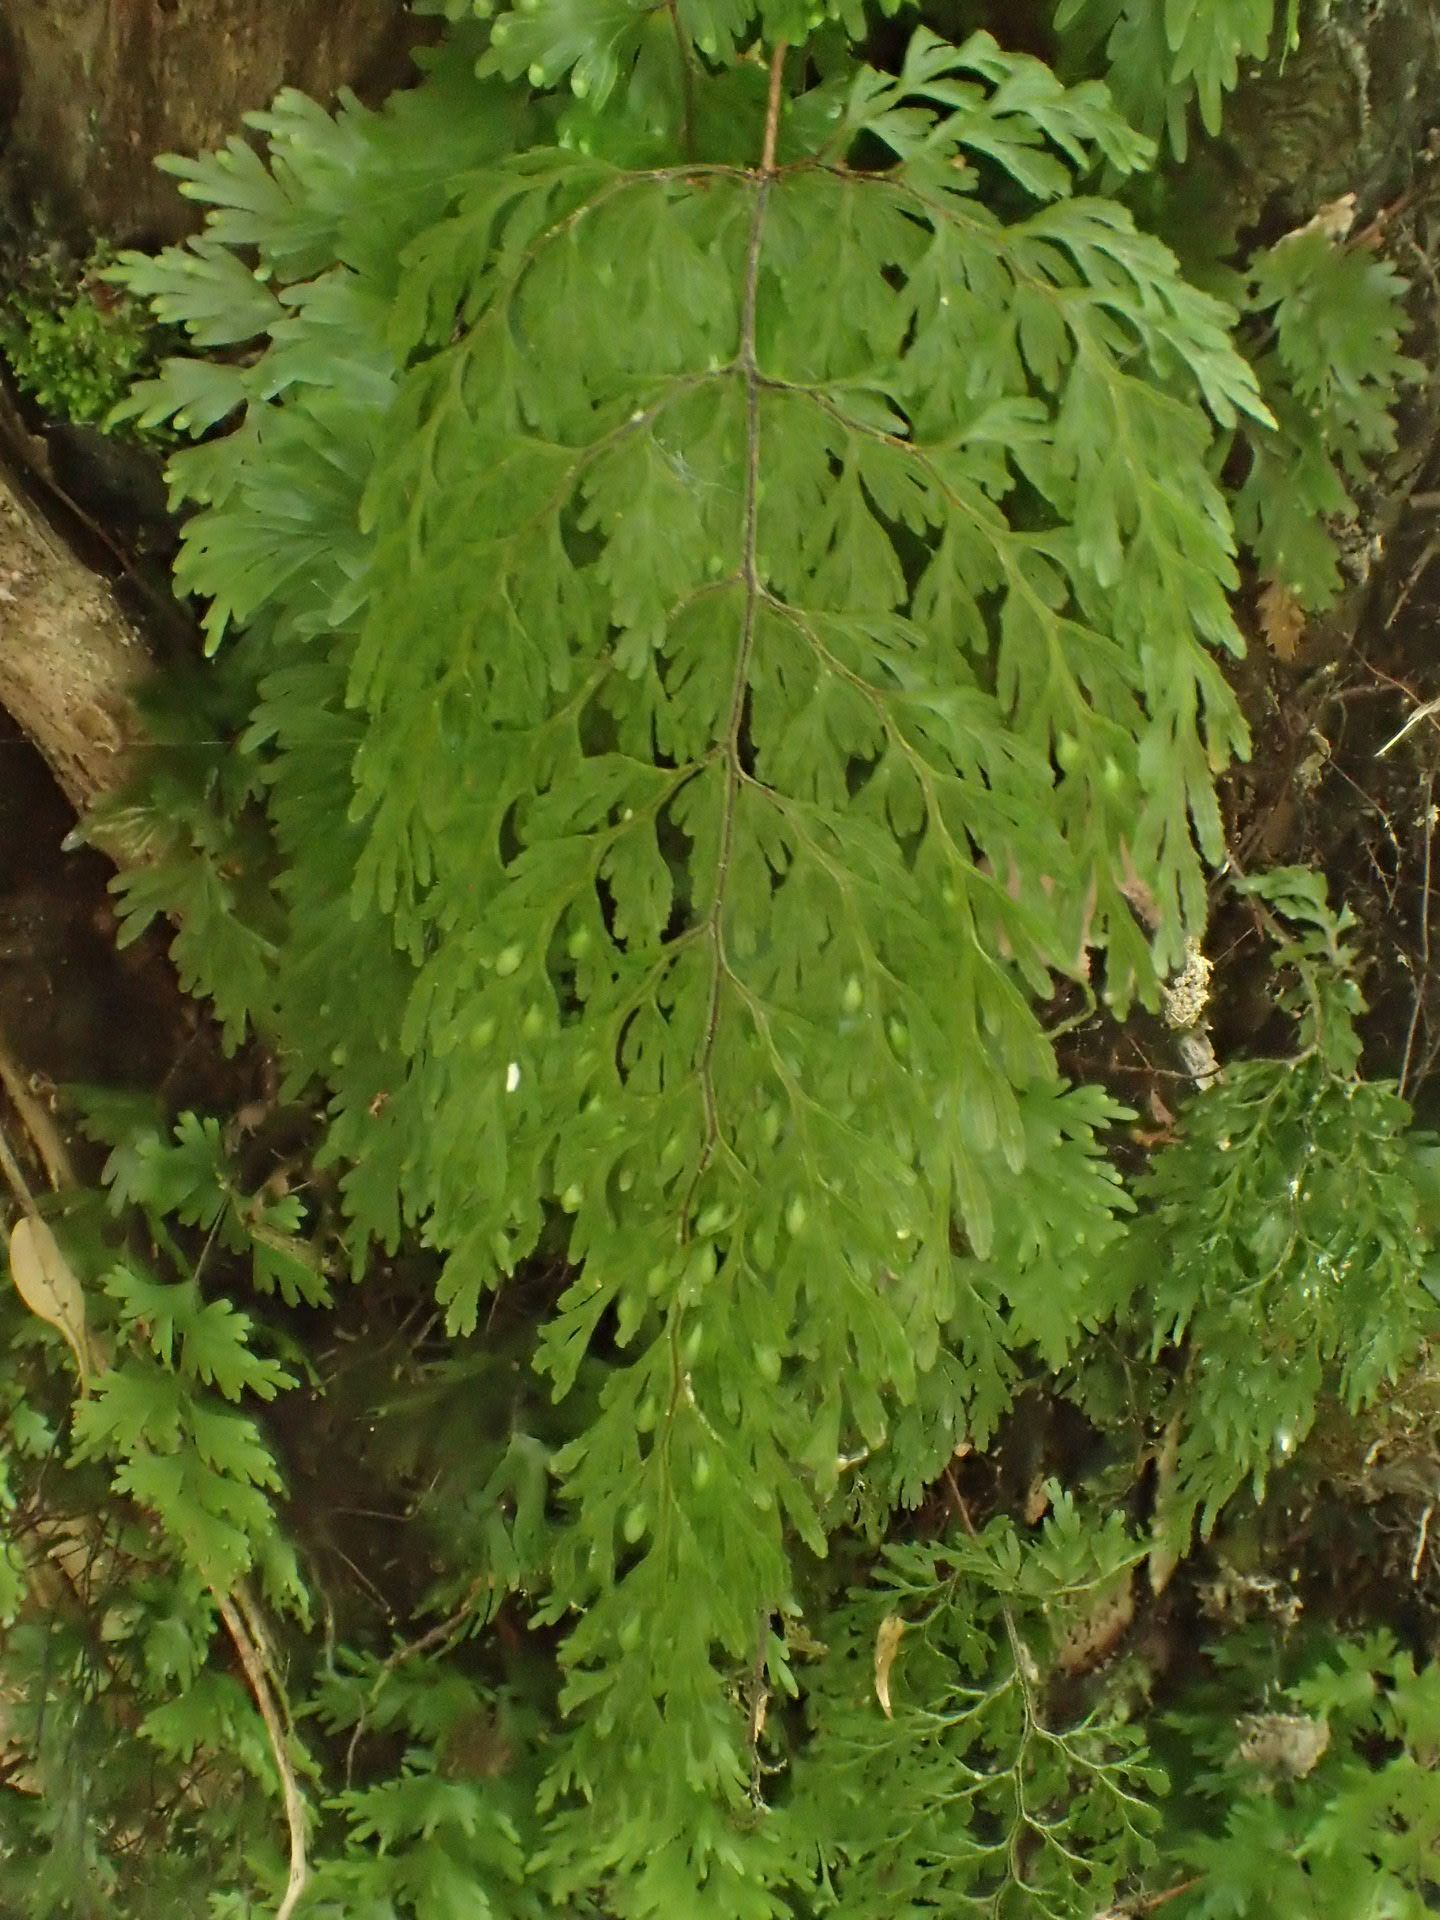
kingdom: Plantae
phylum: Tracheophyta
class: Polypodiopsida
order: Hymenophyllales
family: Hymenophyllaceae
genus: Hymenophyllum
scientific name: Hymenophyllum bivalve
